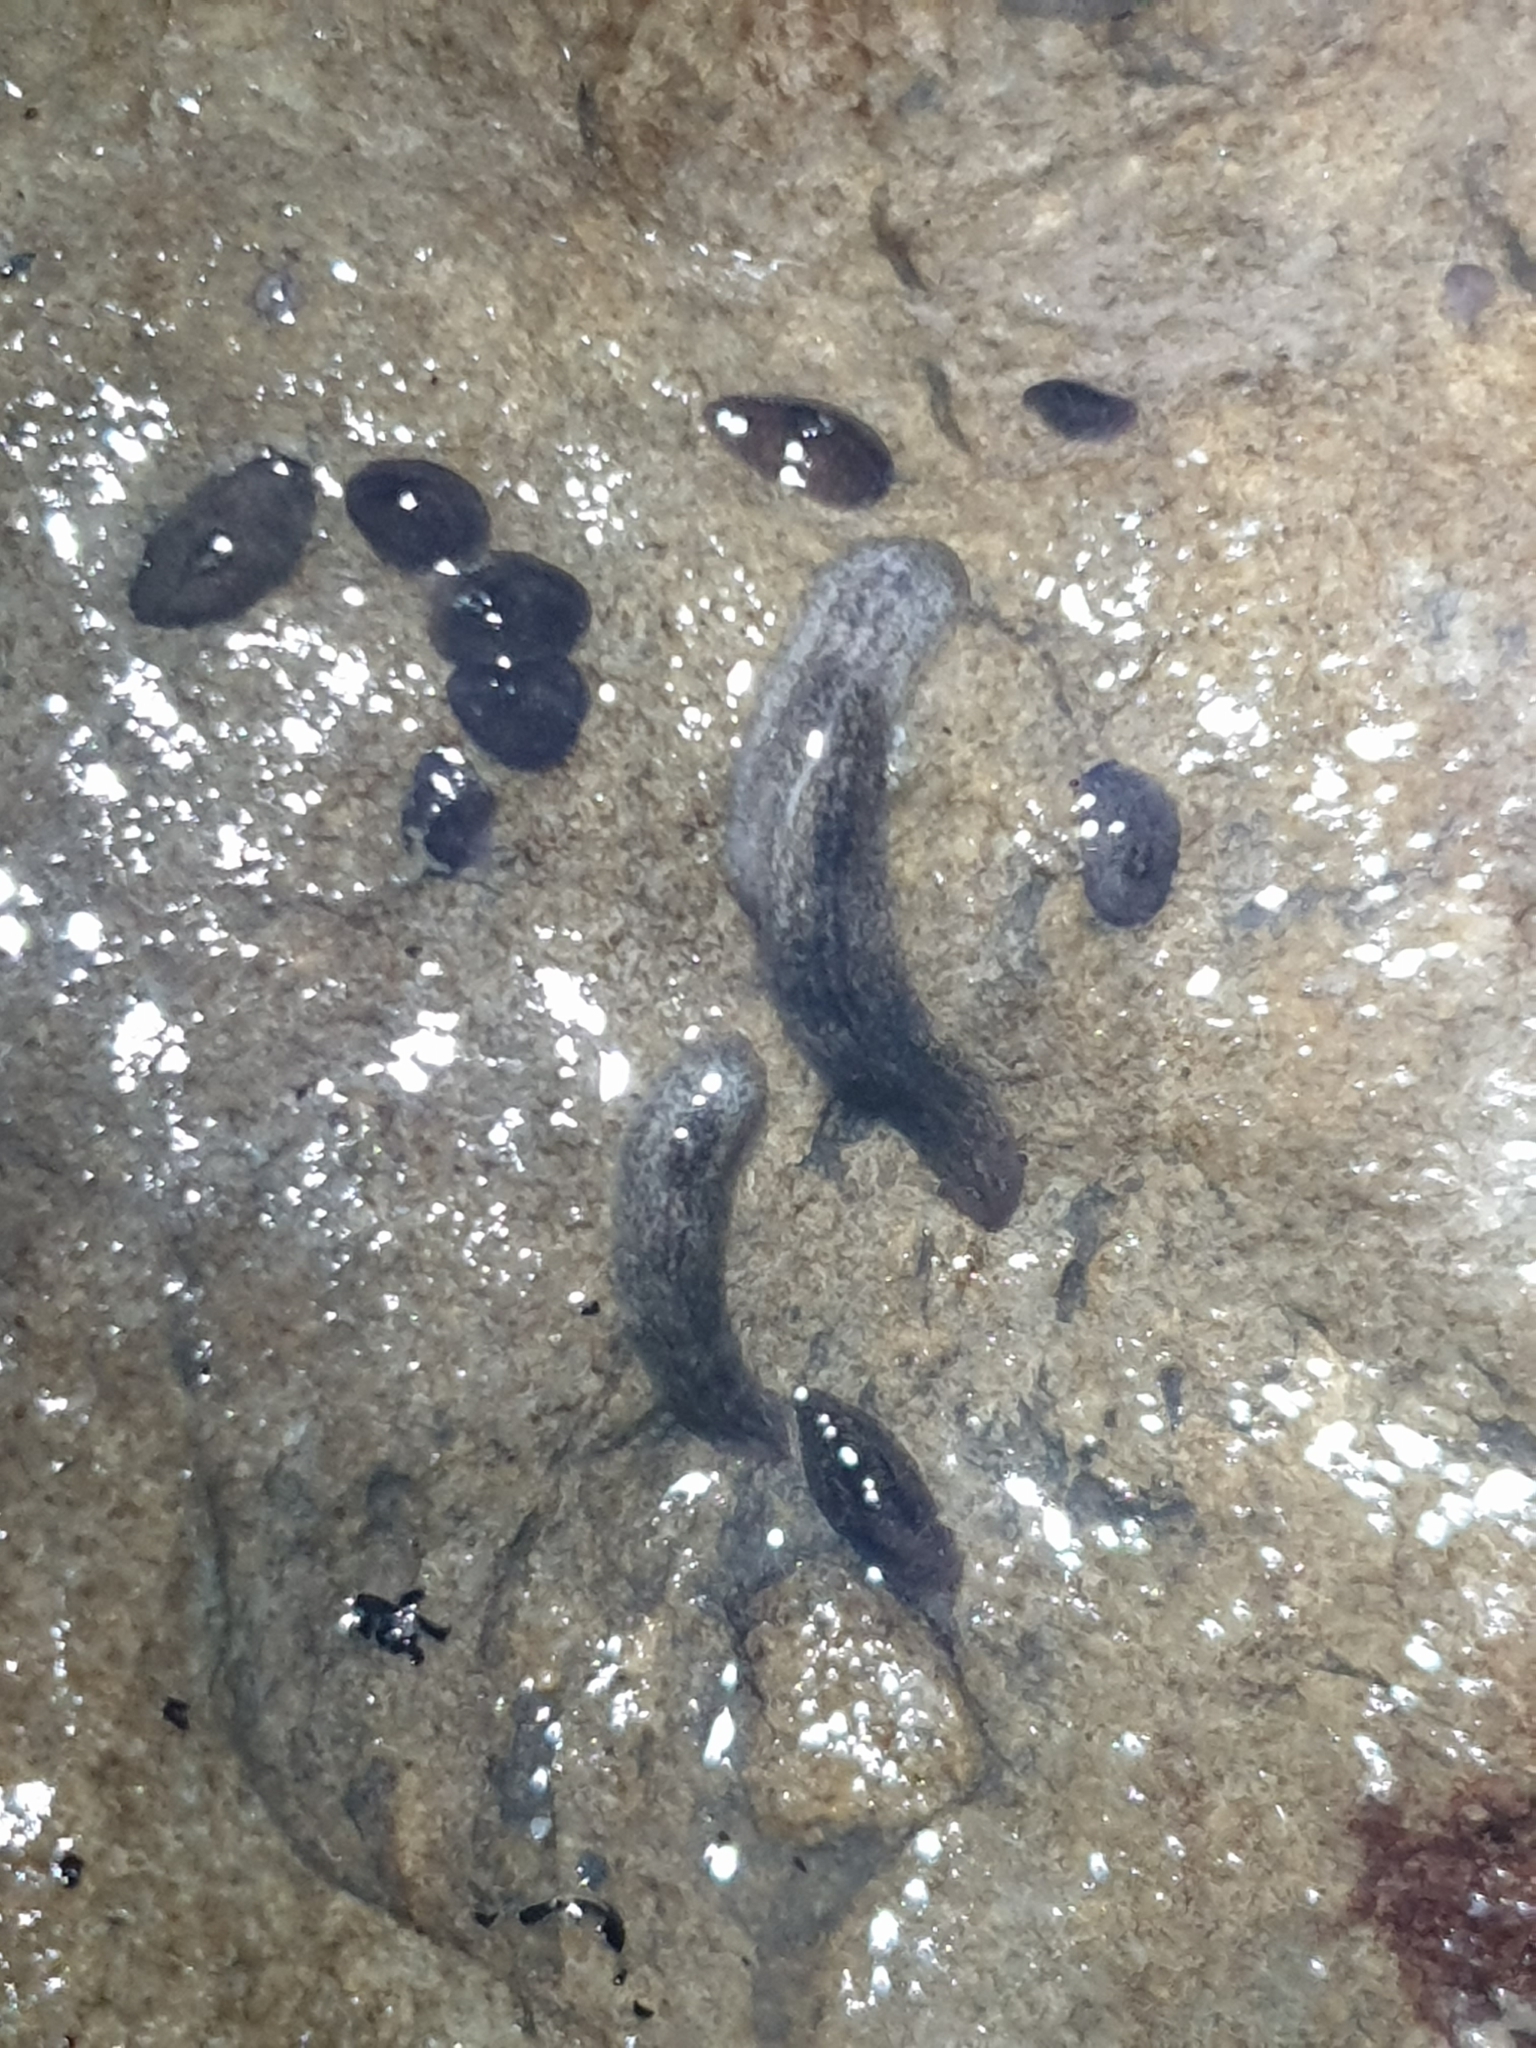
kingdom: Animalia
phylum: Platyhelminthes
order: Tricladida
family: Dugesiidae
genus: Neppia
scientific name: Neppia montana
